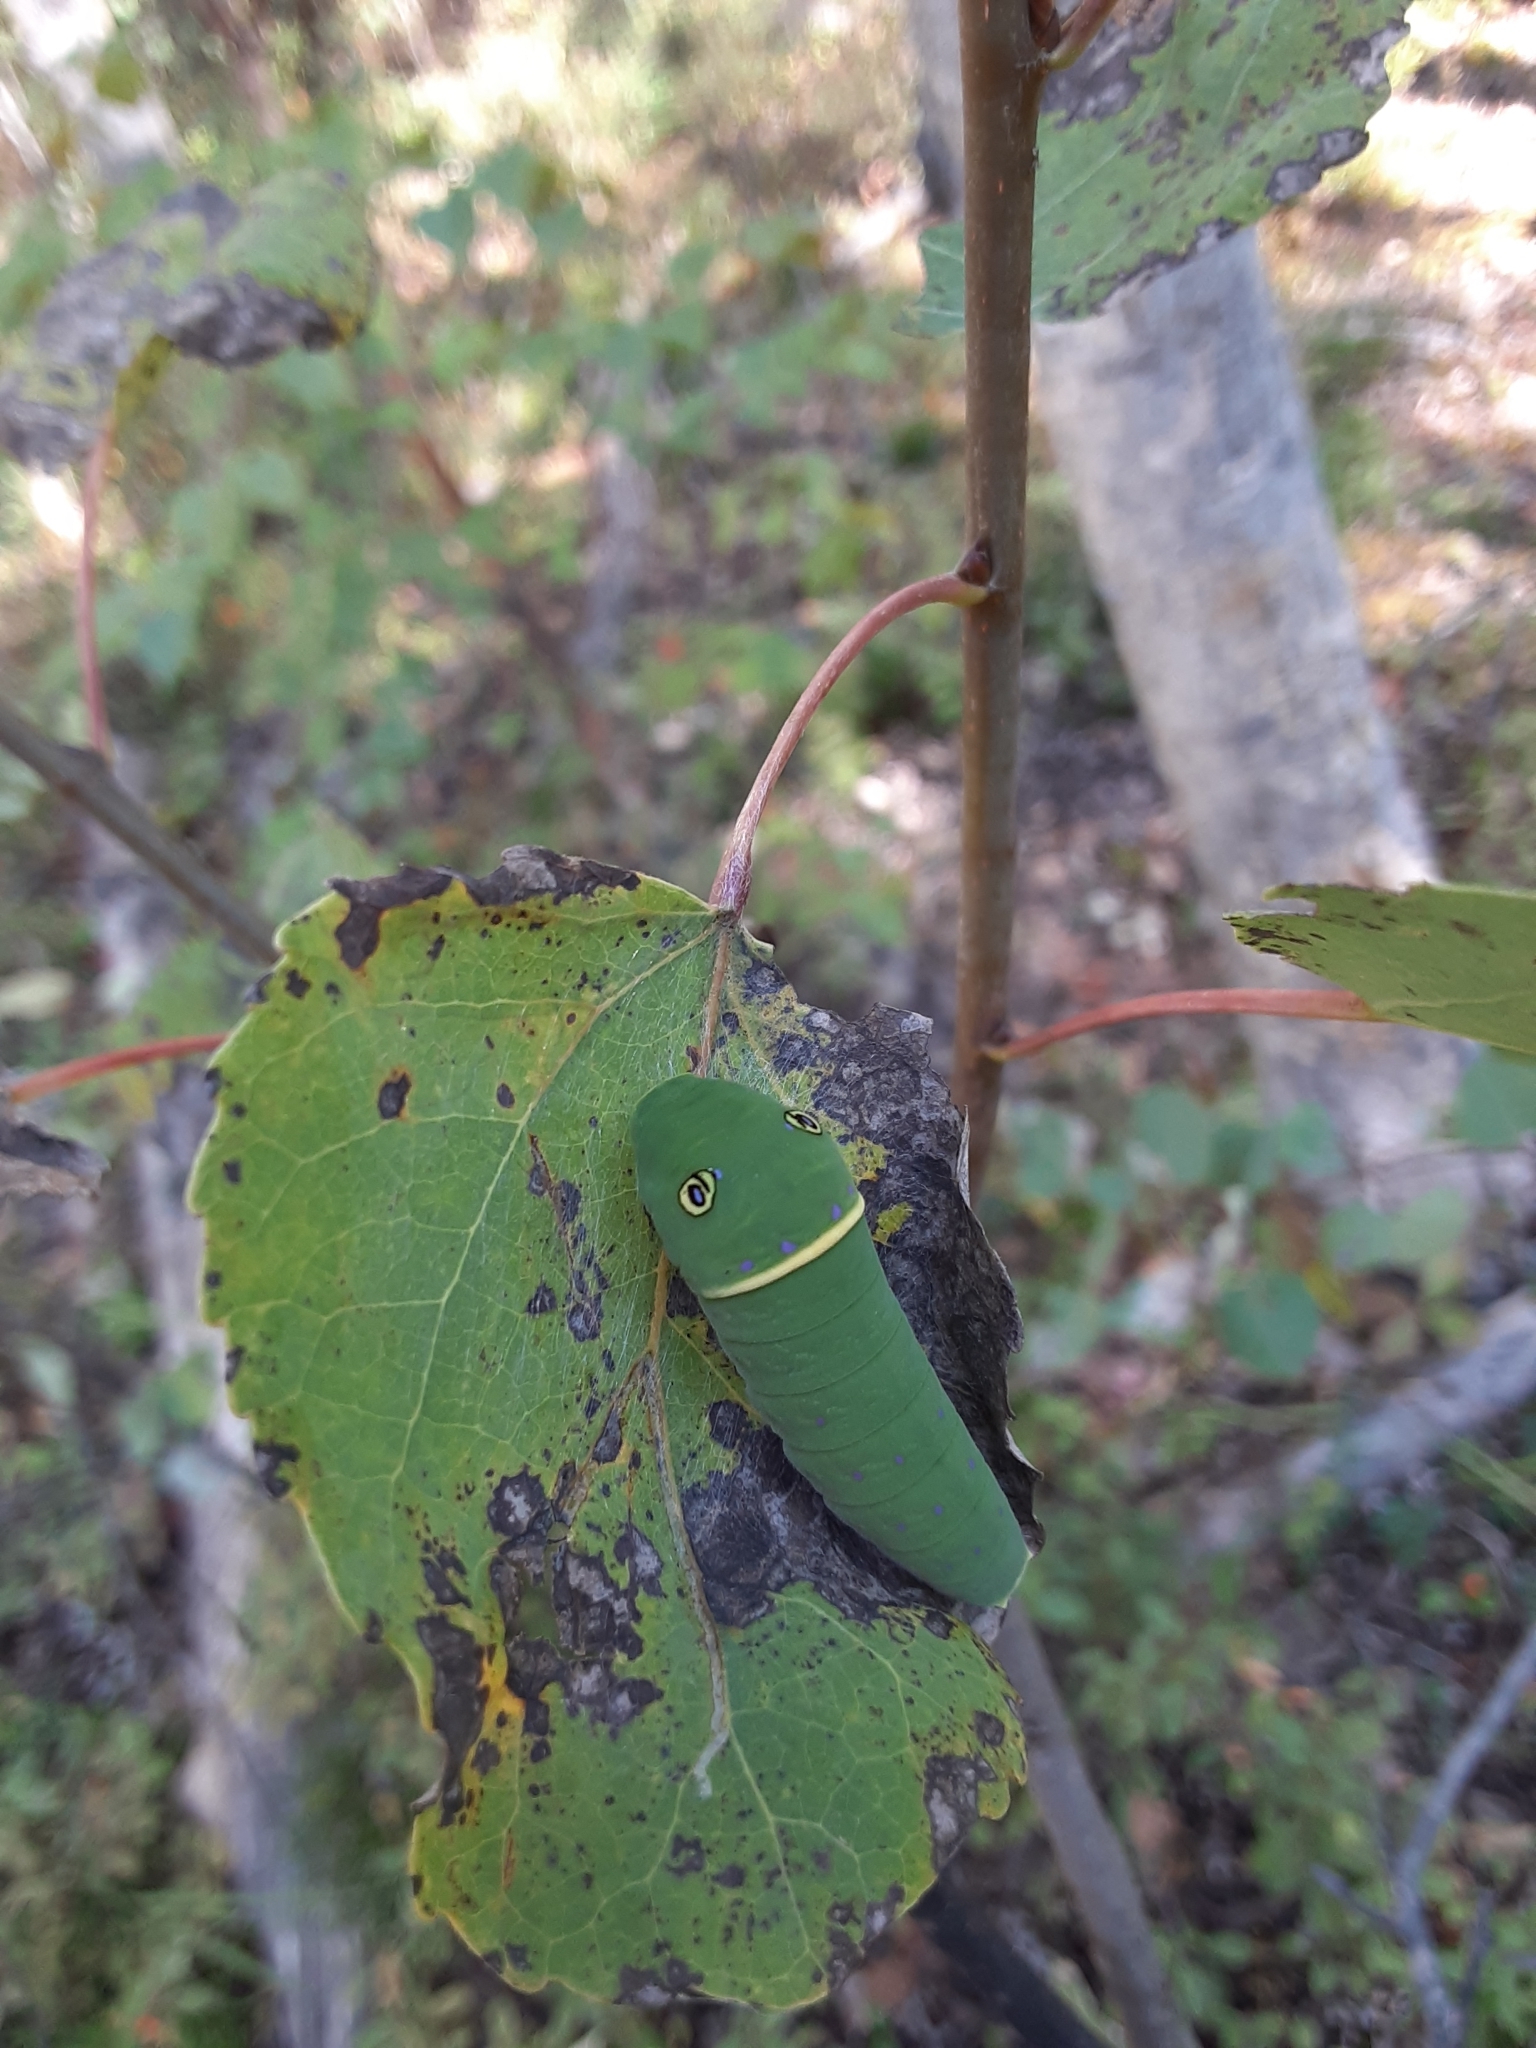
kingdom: Animalia
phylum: Arthropoda
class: Insecta
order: Lepidoptera
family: Papilionidae
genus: Papilio
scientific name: Papilio canadensis
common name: Canadian tiger swallowtail
